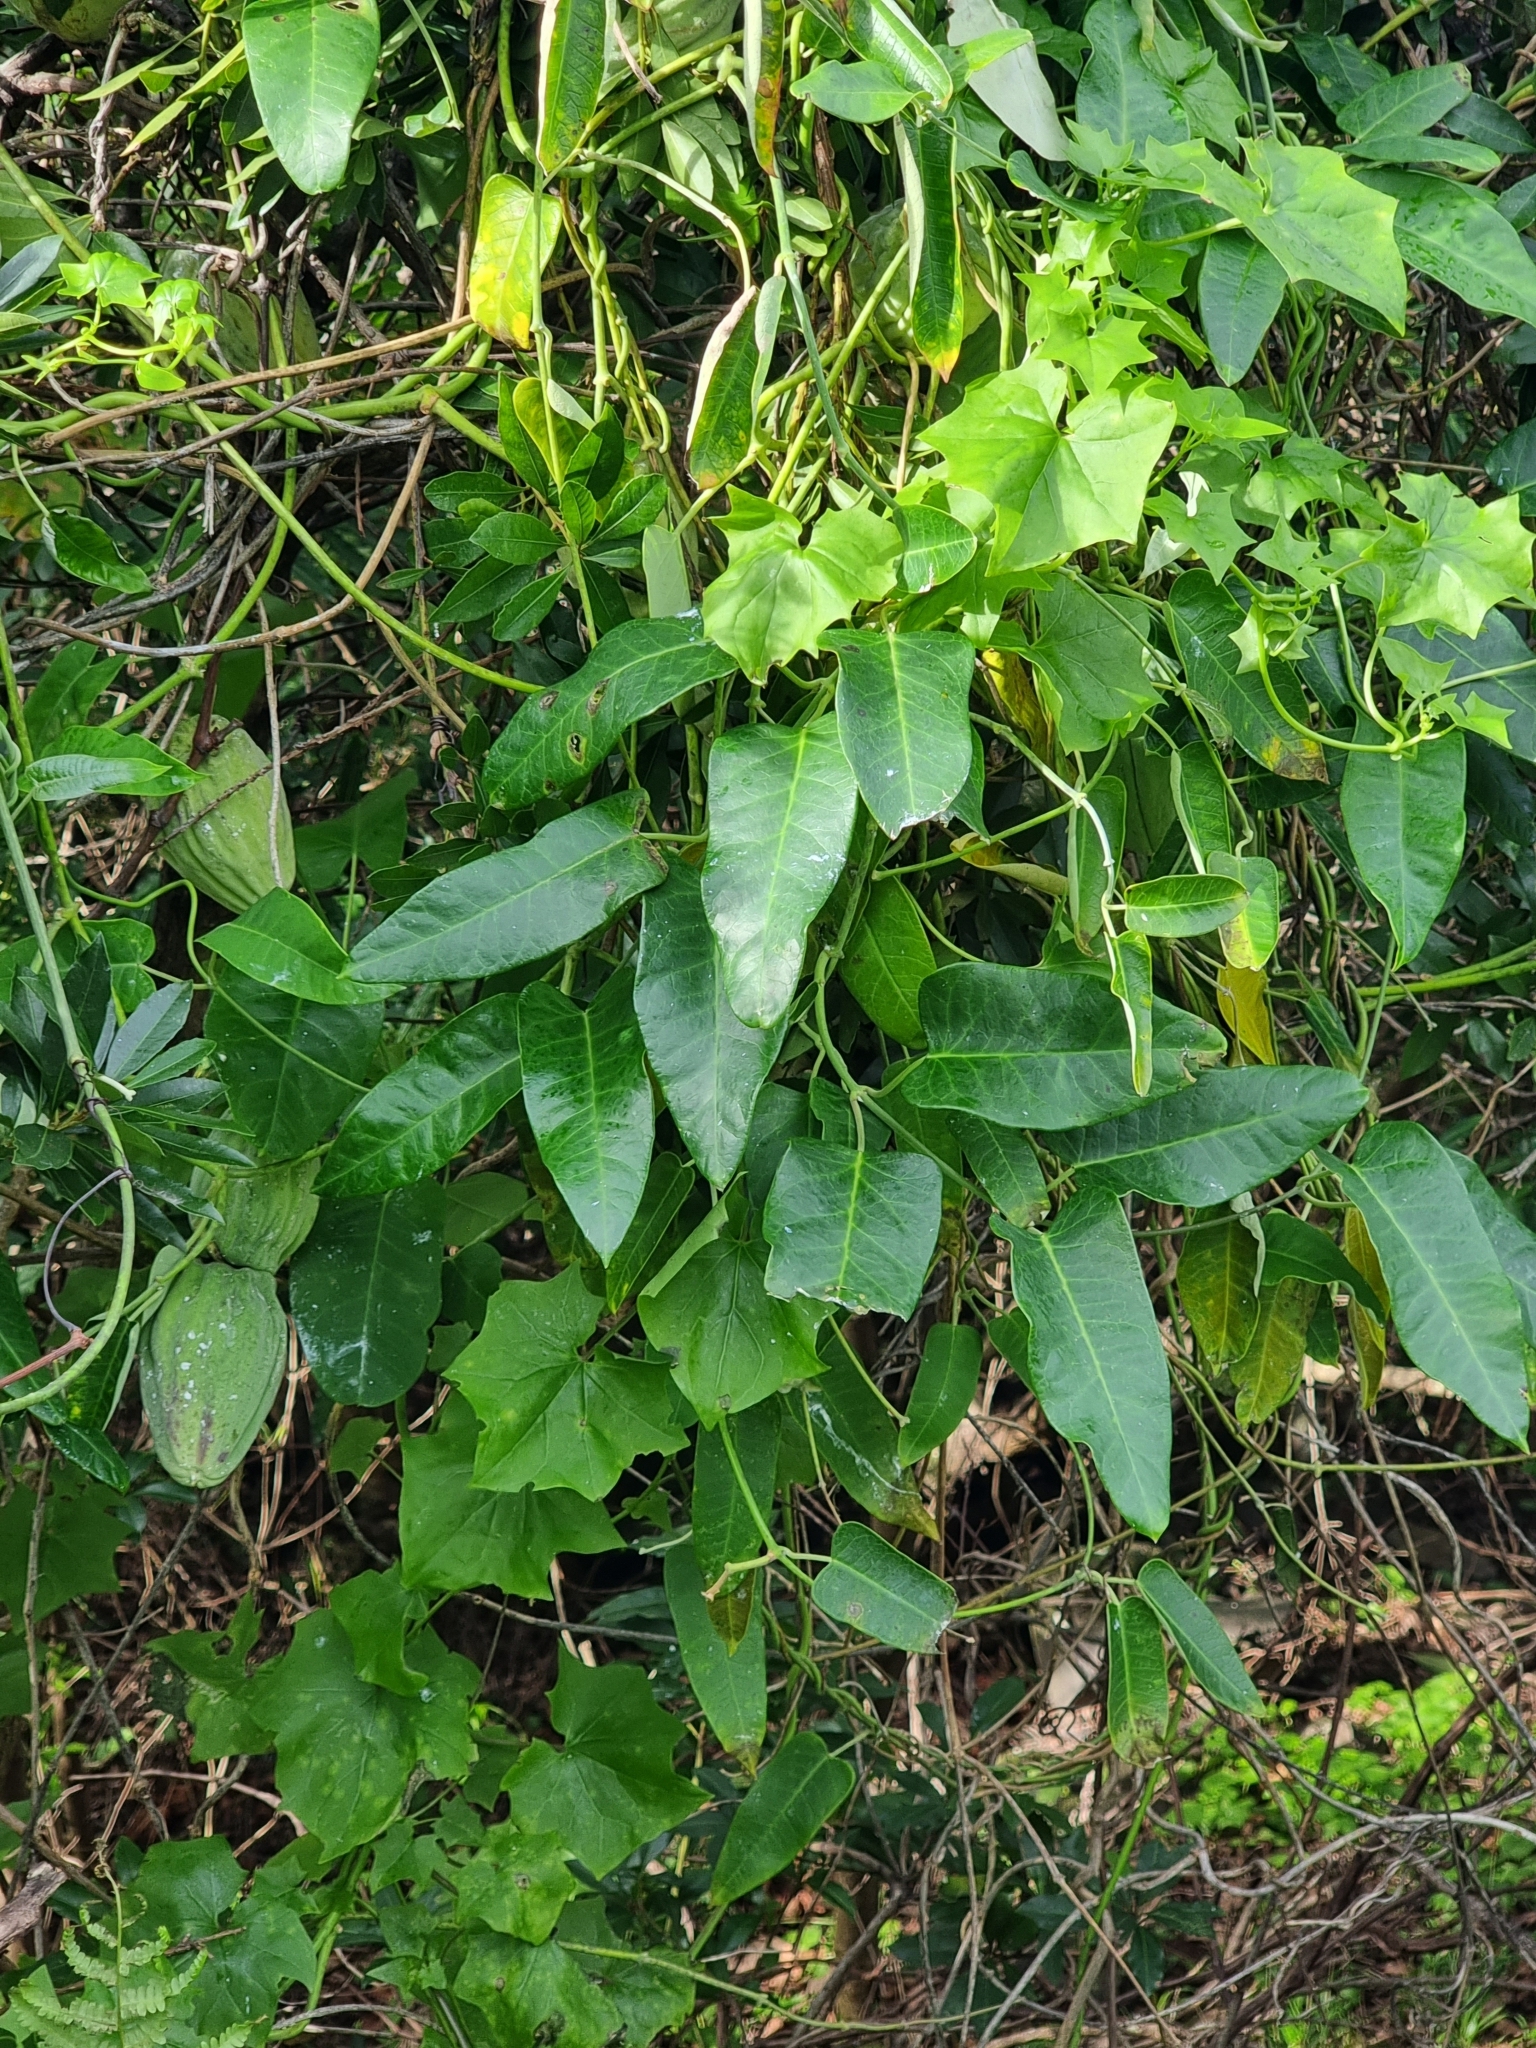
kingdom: Plantae
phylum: Tracheophyta
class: Magnoliopsida
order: Gentianales
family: Apocynaceae
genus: Araujia
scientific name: Araujia sericifera
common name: White bladderflower
